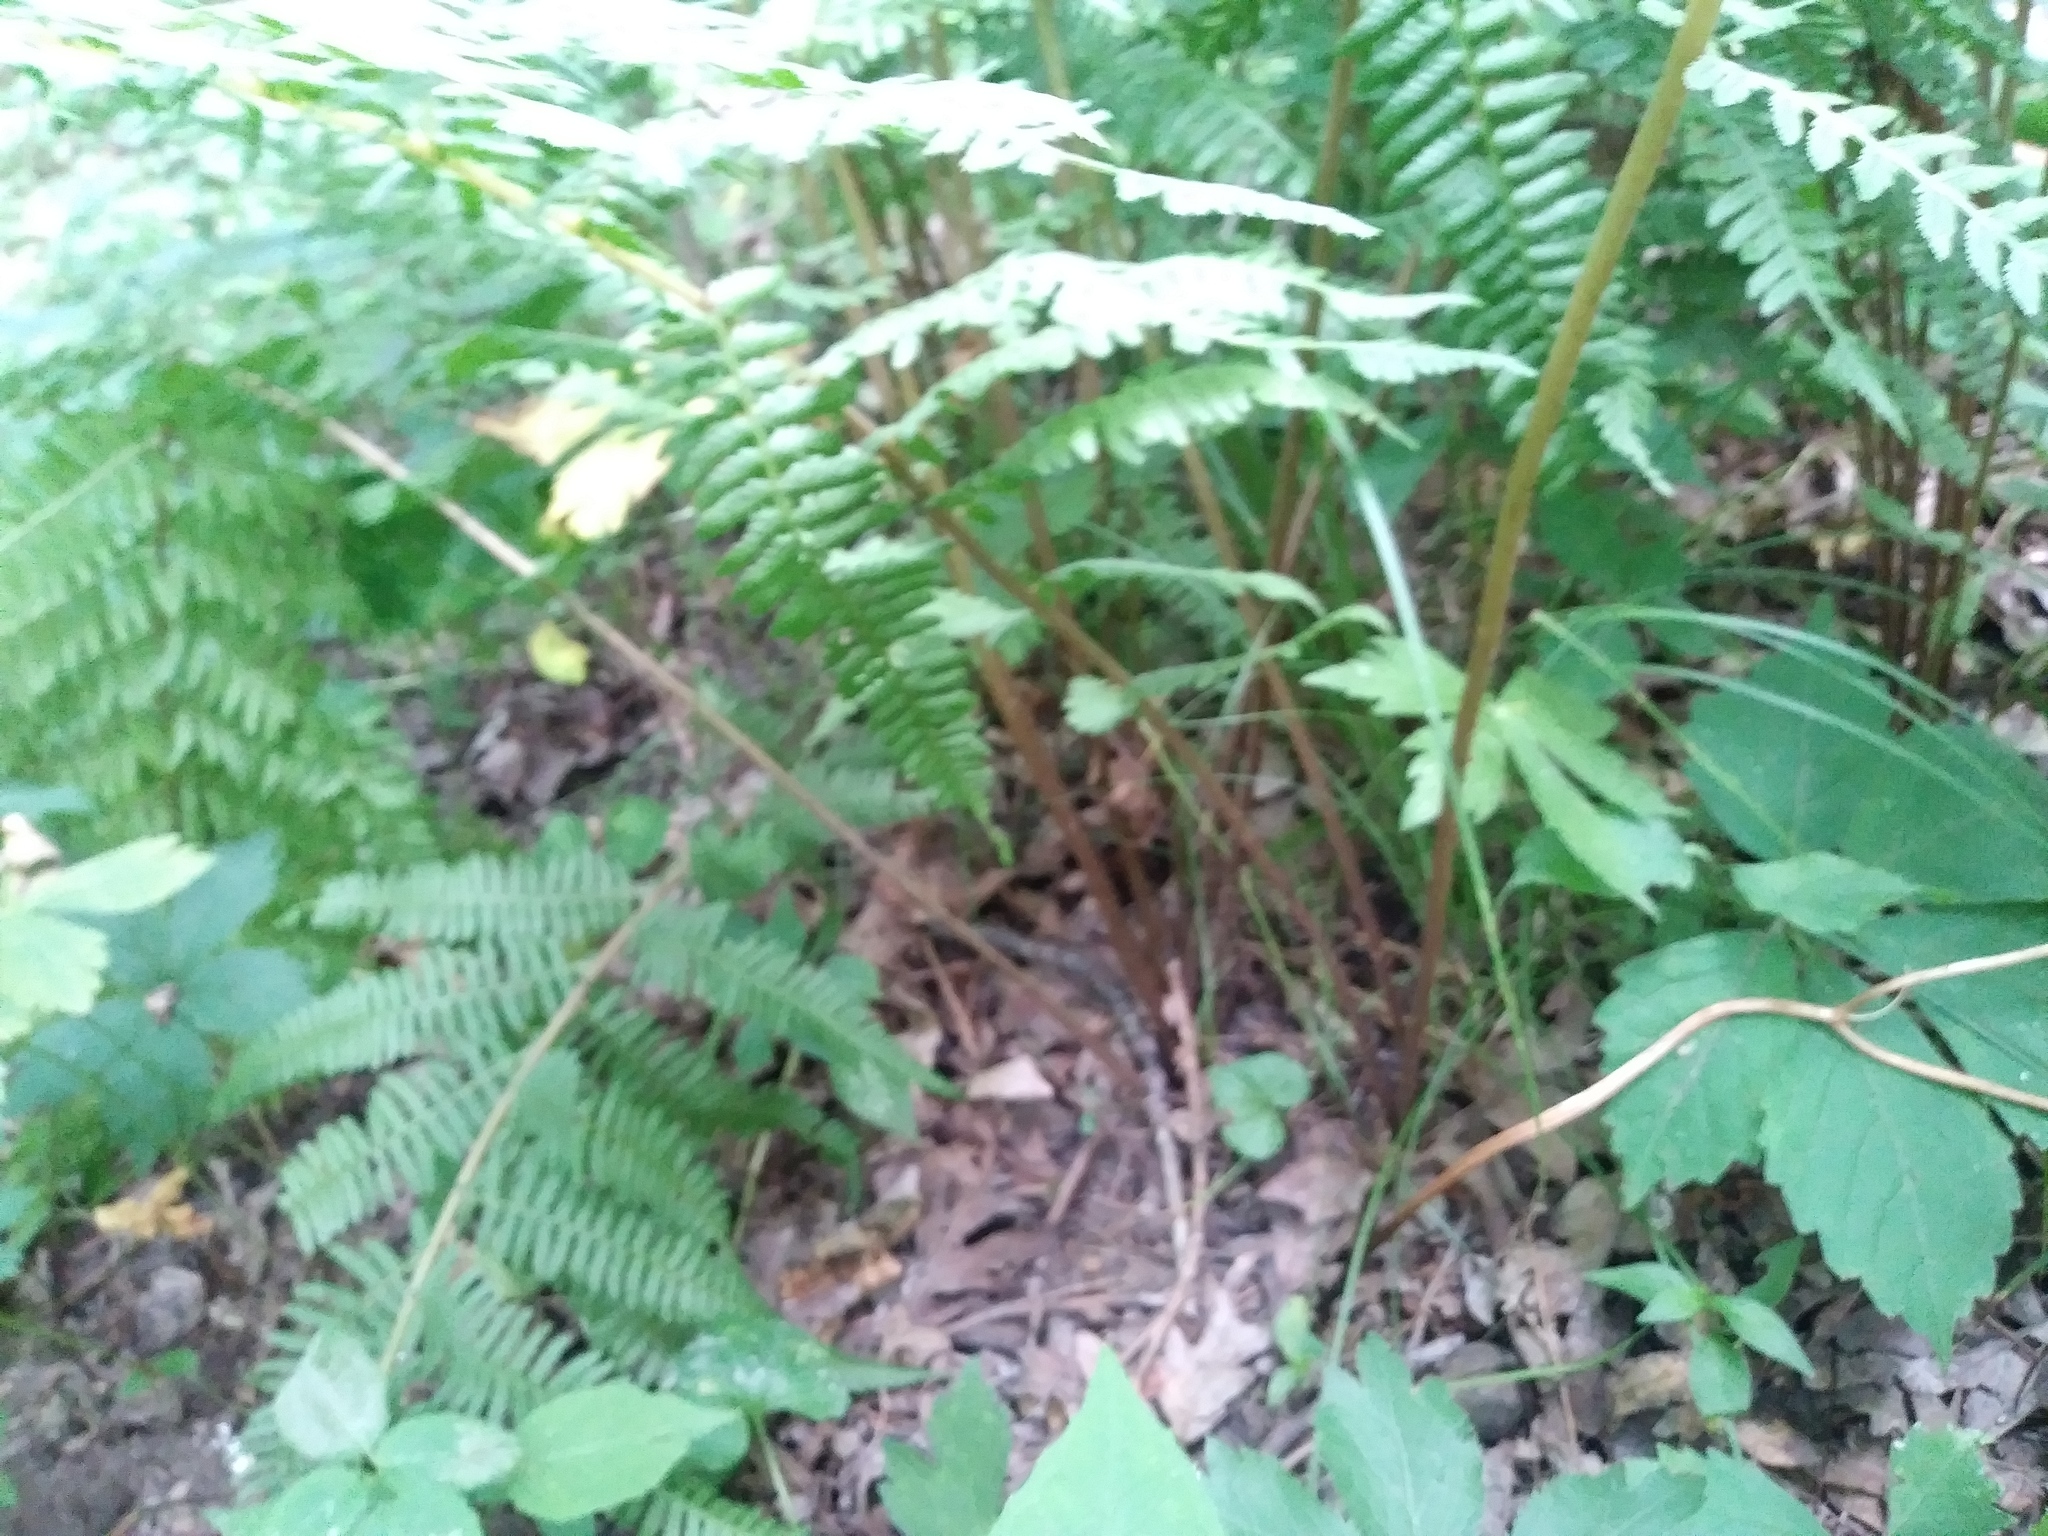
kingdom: Plantae
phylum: Tracheophyta
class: Polypodiopsida
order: Polypodiales
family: Athyriaceae
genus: Athyrium
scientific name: Athyrium angustum
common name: Northern lady fern
